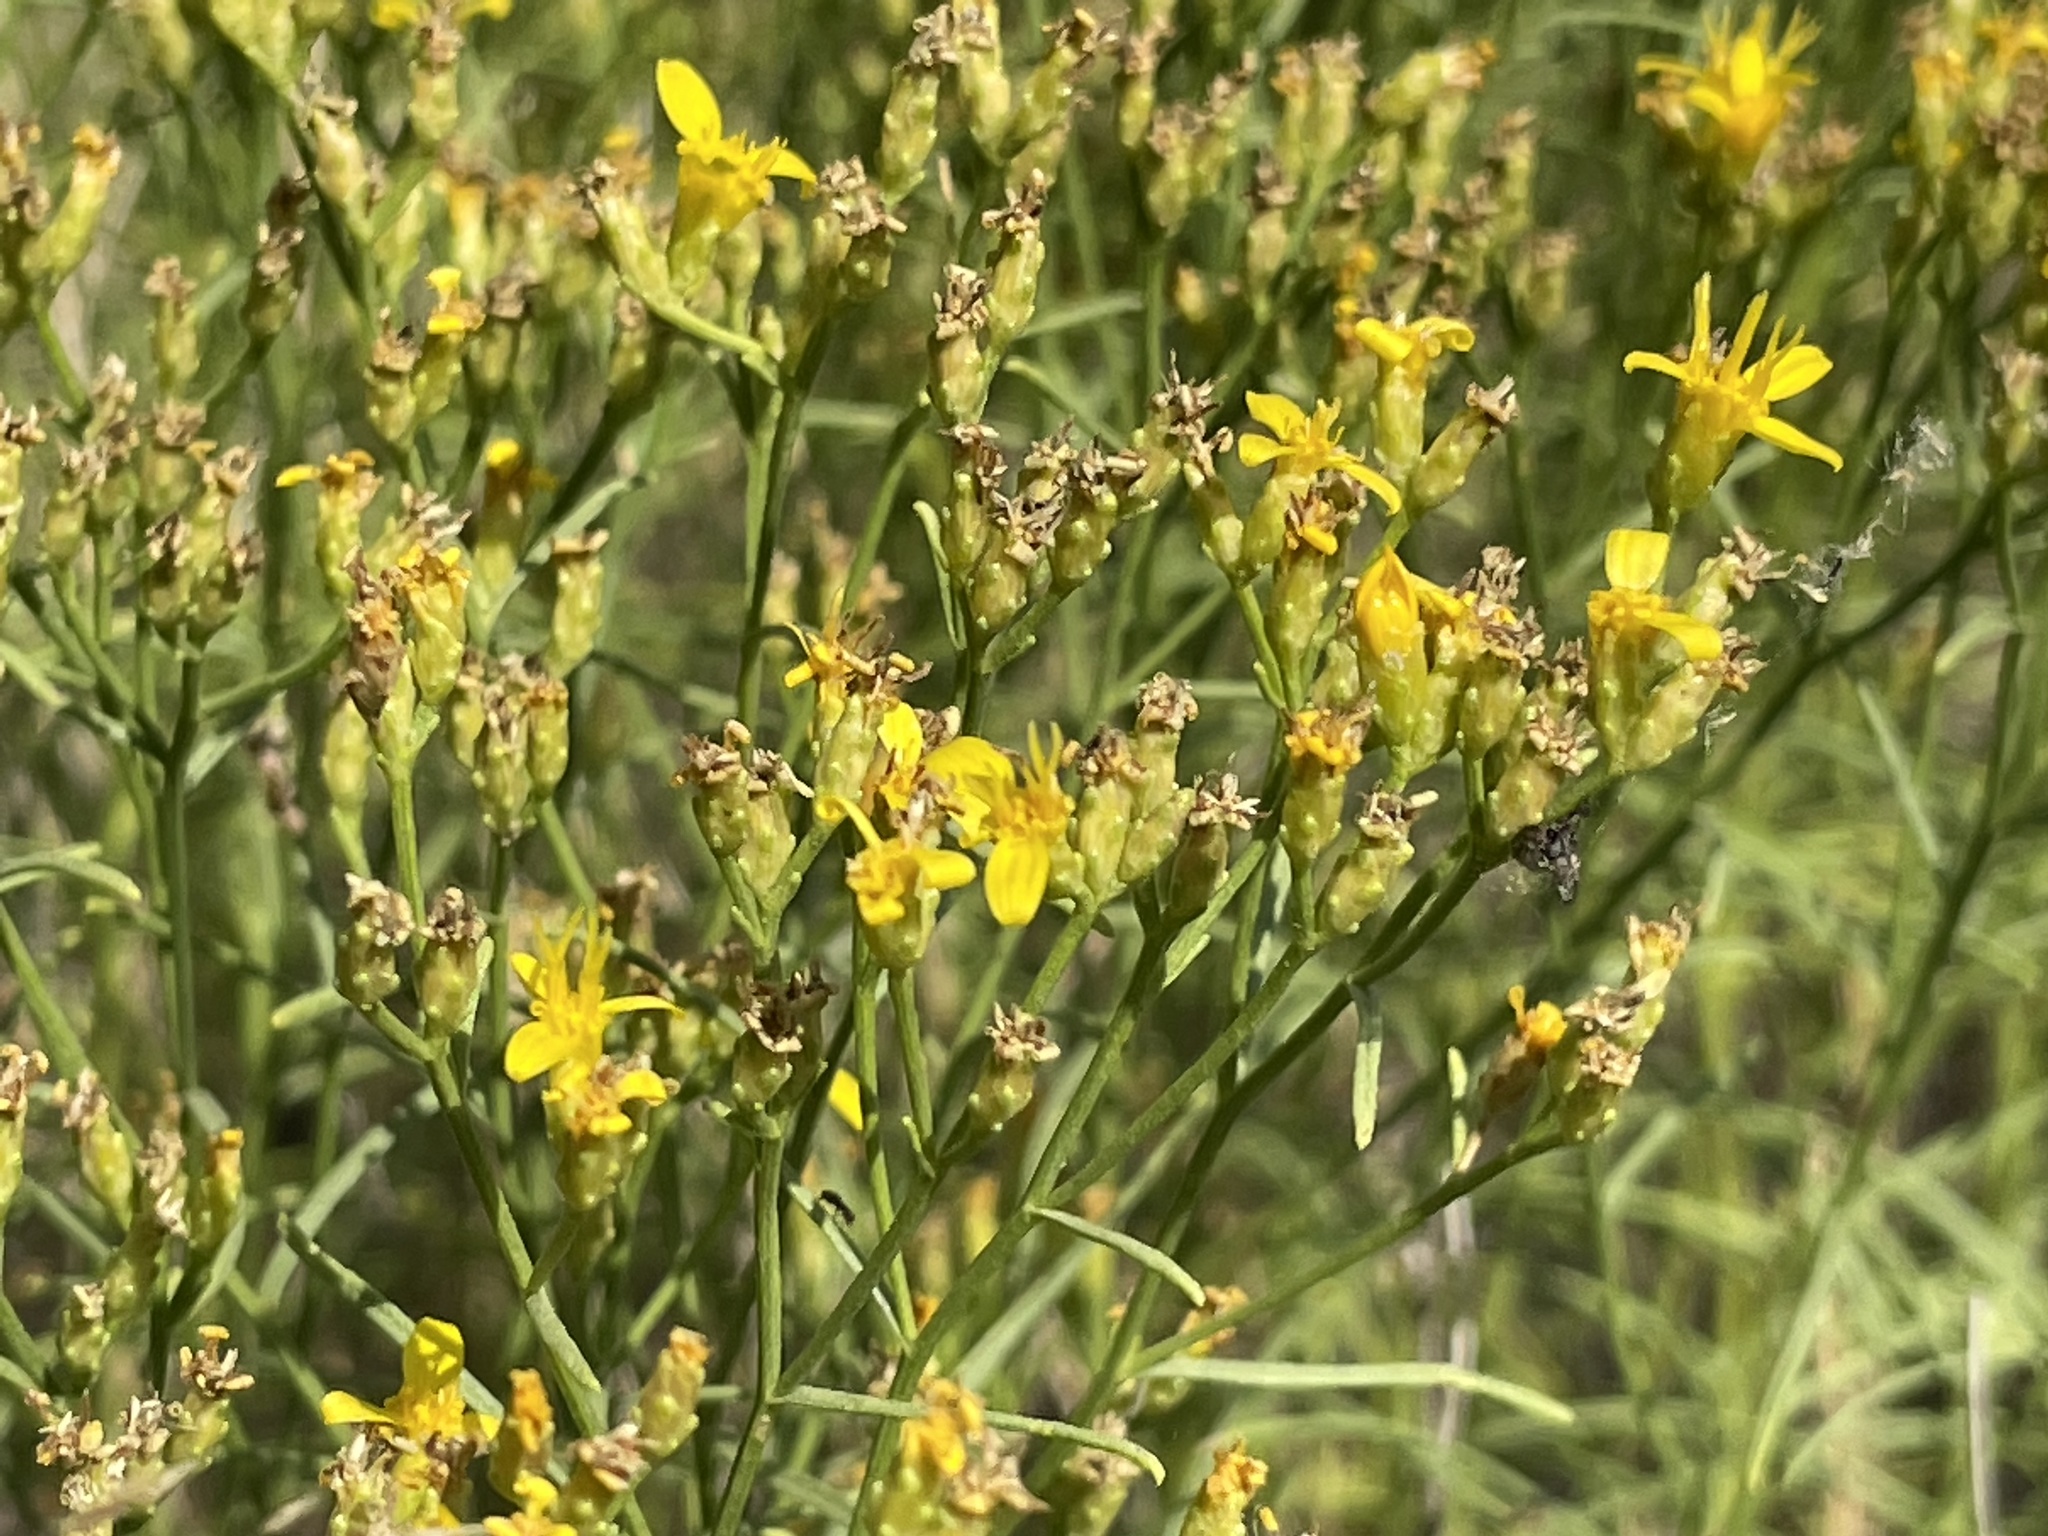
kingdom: Plantae
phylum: Tracheophyta
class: Magnoliopsida
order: Asterales
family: Asteraceae
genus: Gutierrezia
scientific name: Gutierrezia sarothrae
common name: Broom snakeweed
